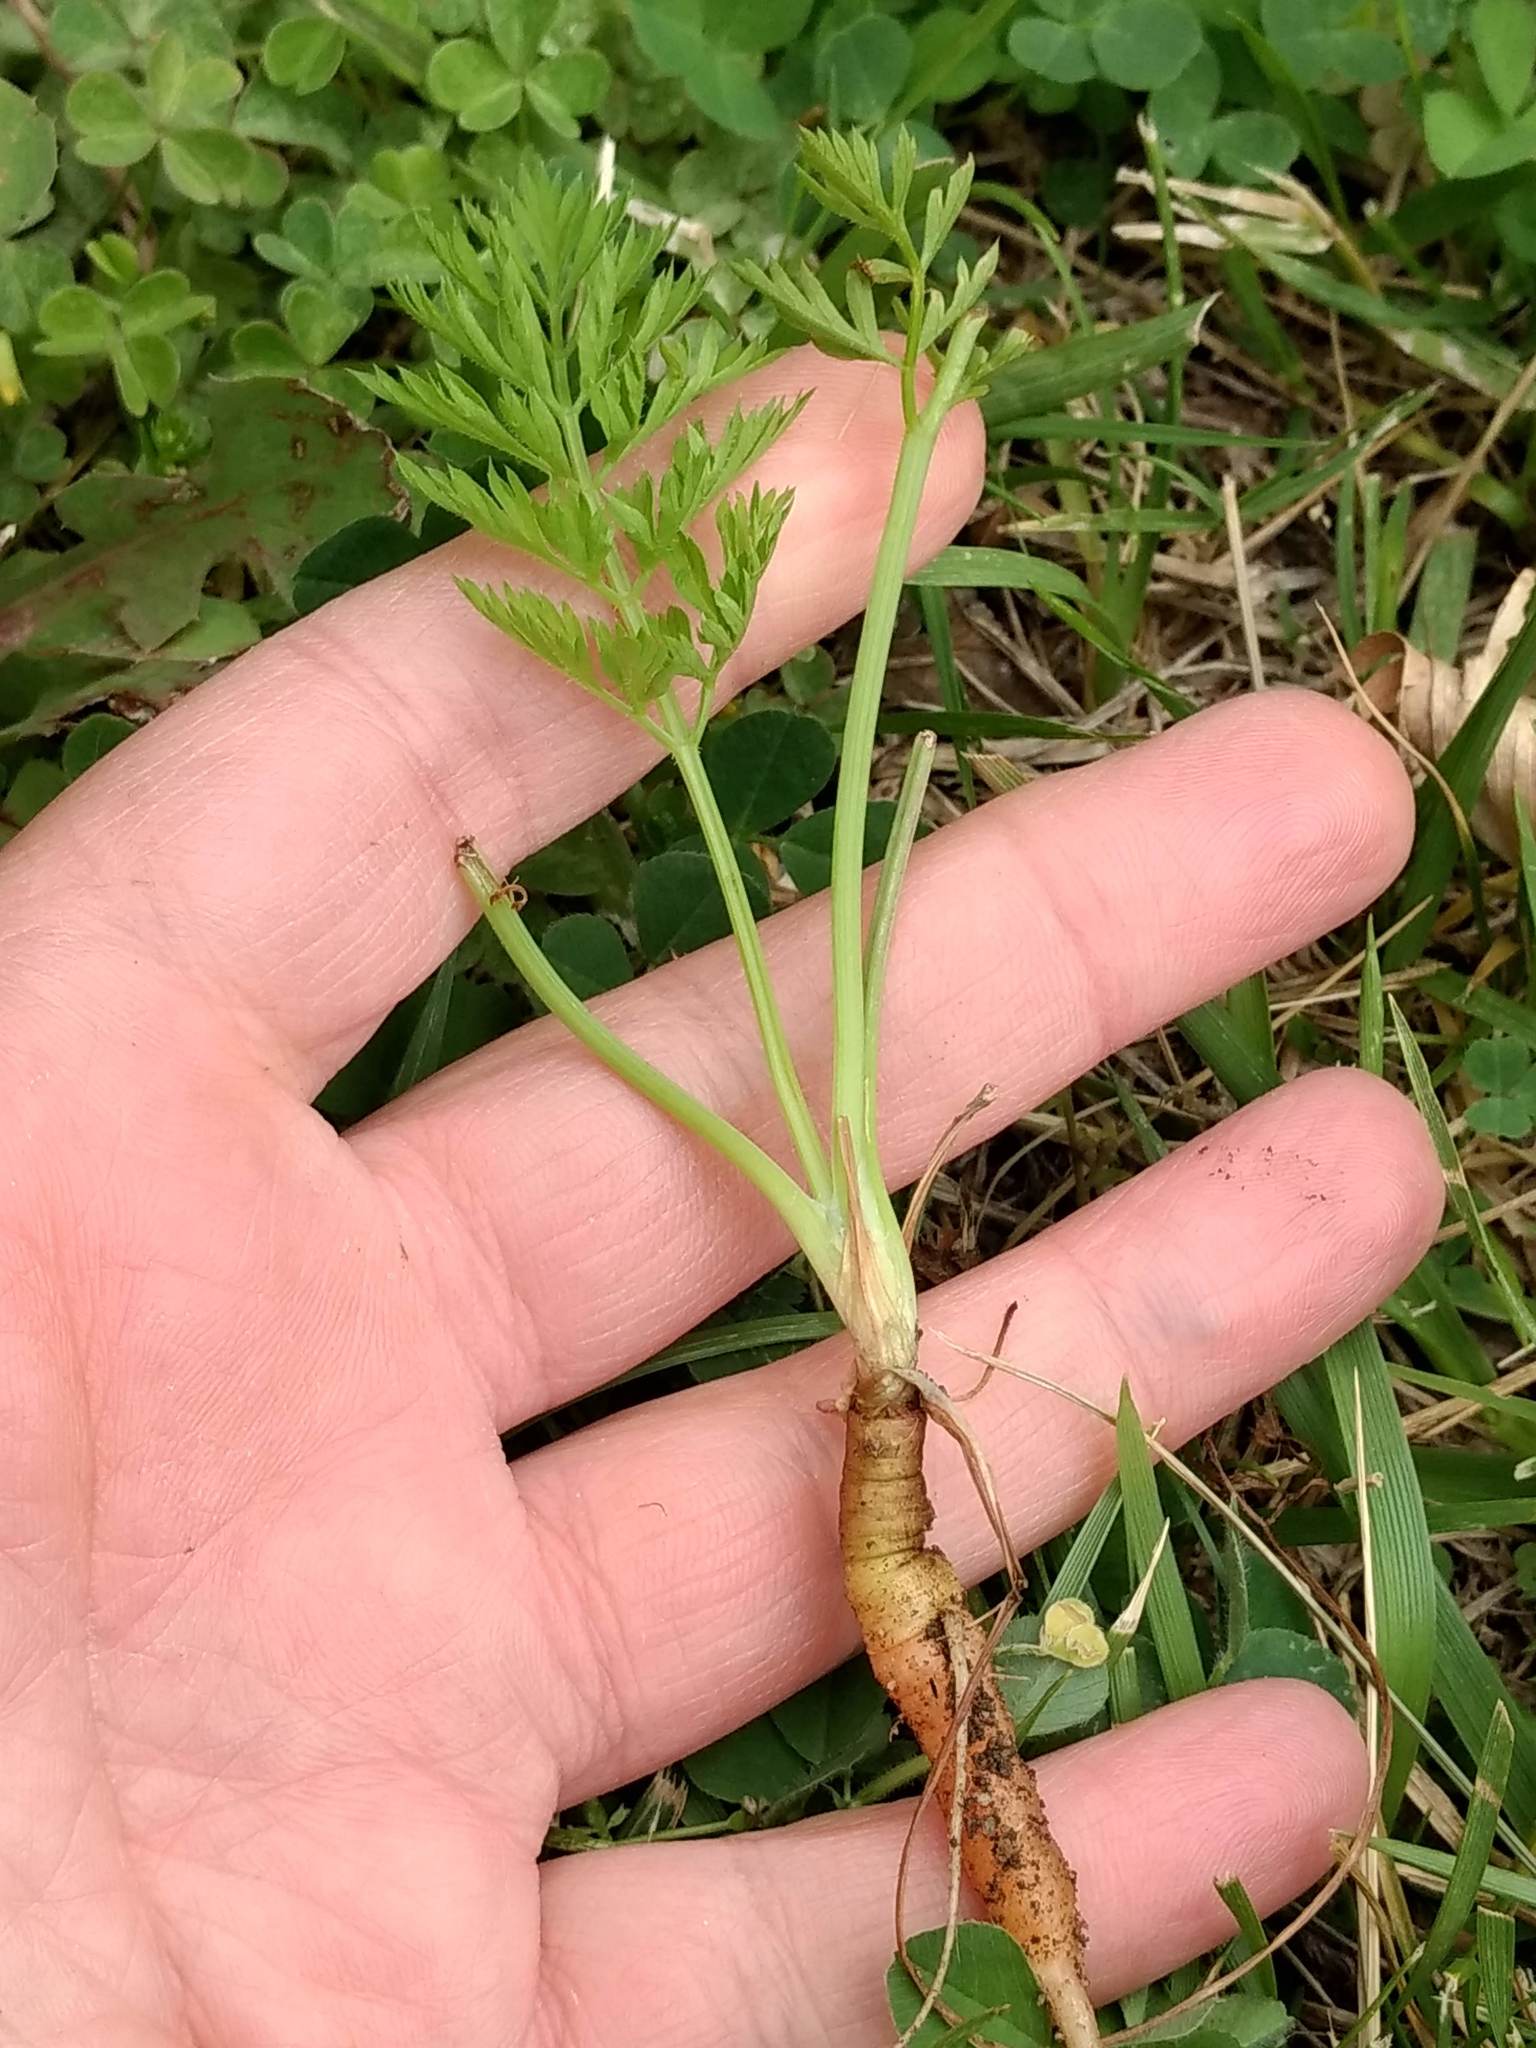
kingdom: Plantae
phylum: Tracheophyta
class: Magnoliopsida
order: Apiales
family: Apiaceae
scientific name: Apiaceae
